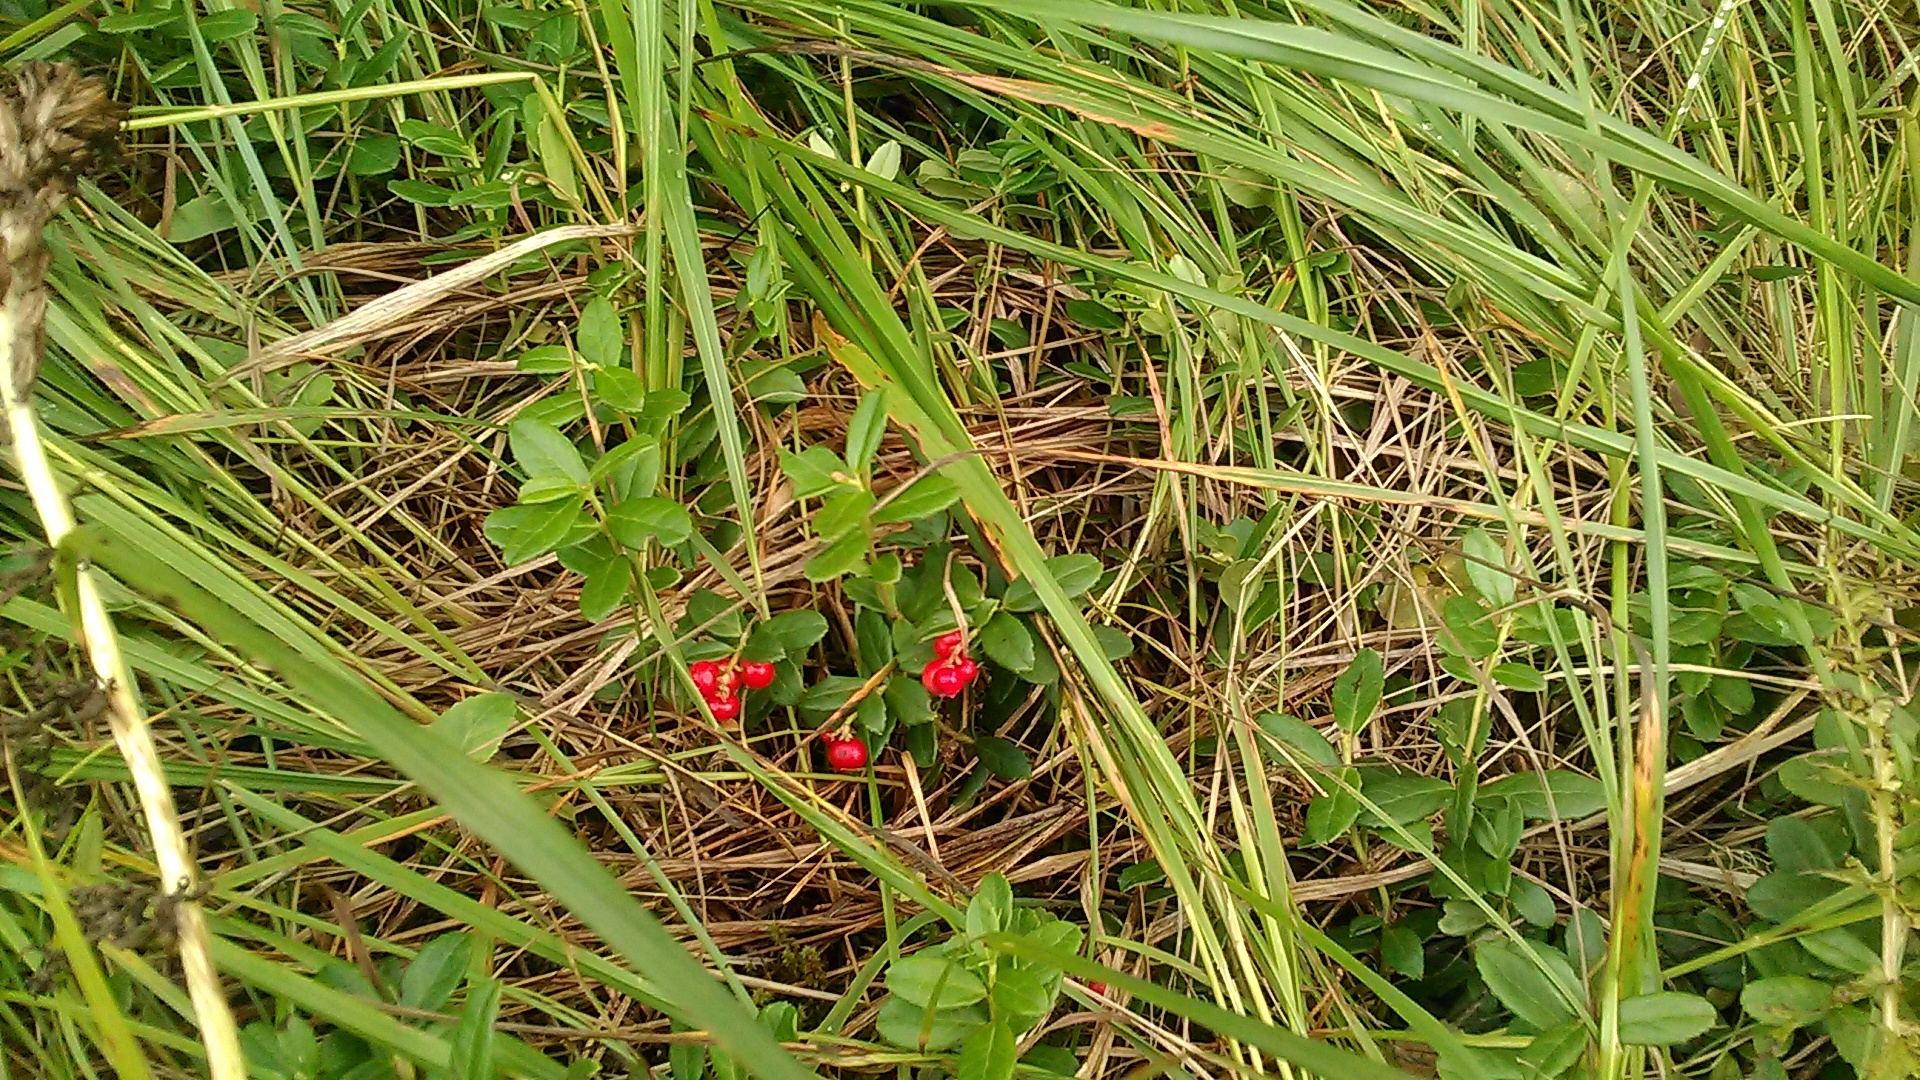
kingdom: Plantae
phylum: Tracheophyta
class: Magnoliopsida
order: Ericales
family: Ericaceae
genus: Vaccinium
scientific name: Vaccinium vitis-idaea
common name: Cowberry
